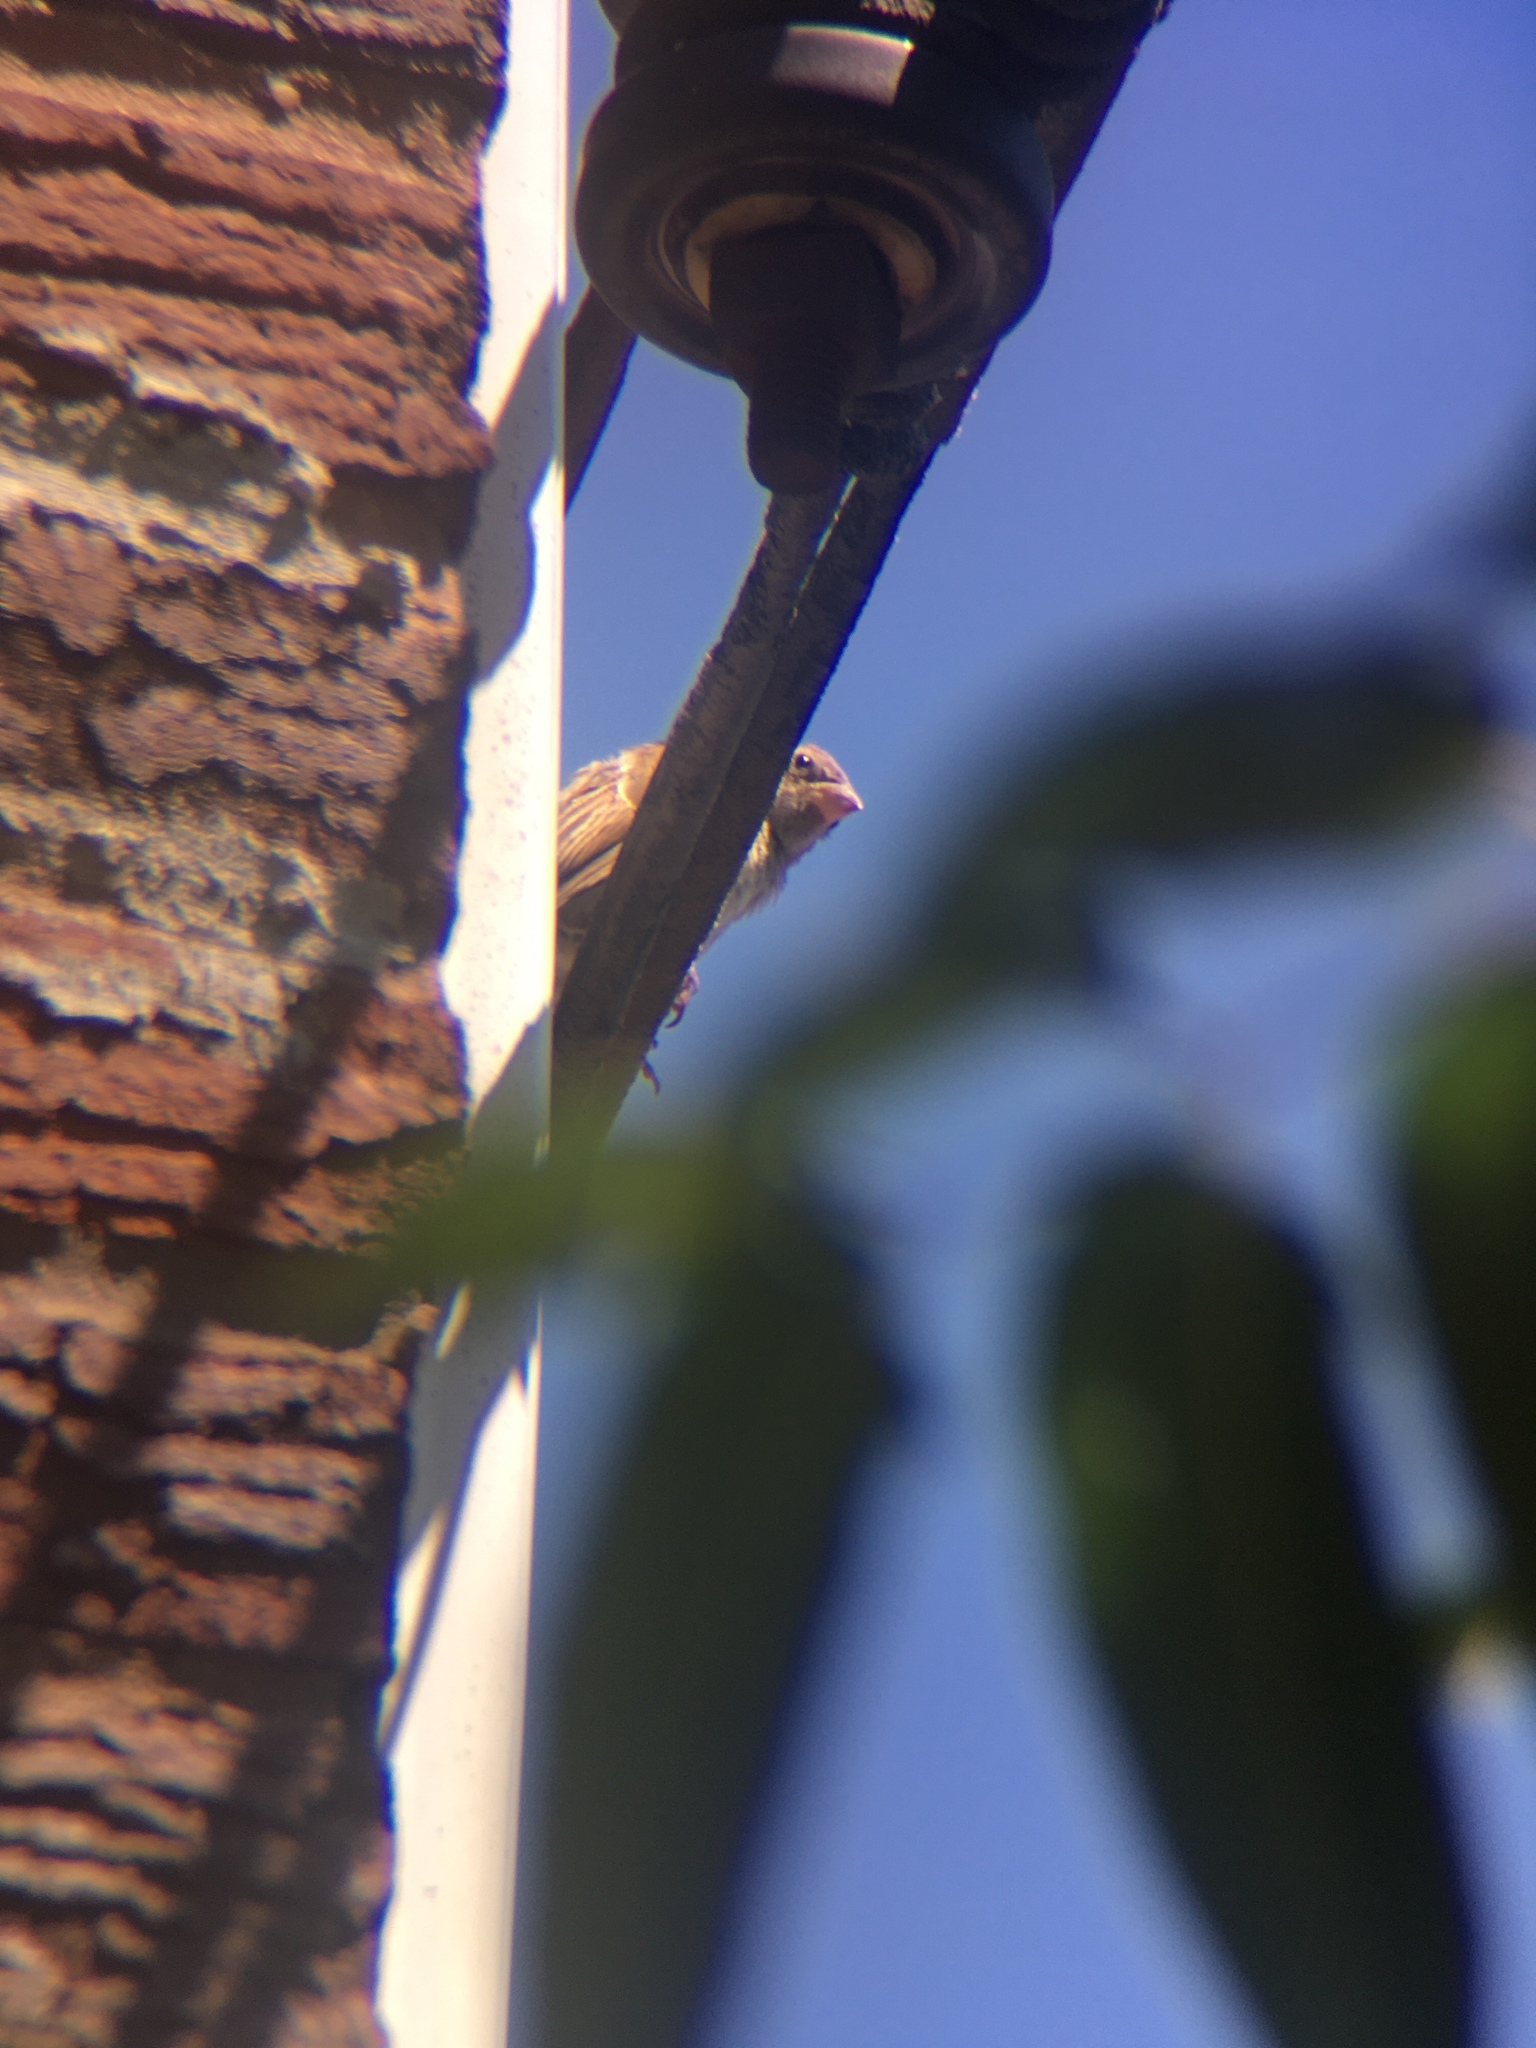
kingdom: Animalia
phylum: Chordata
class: Aves
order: Passeriformes
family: Passeridae
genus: Passer
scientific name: Passer domesticus
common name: House sparrow
